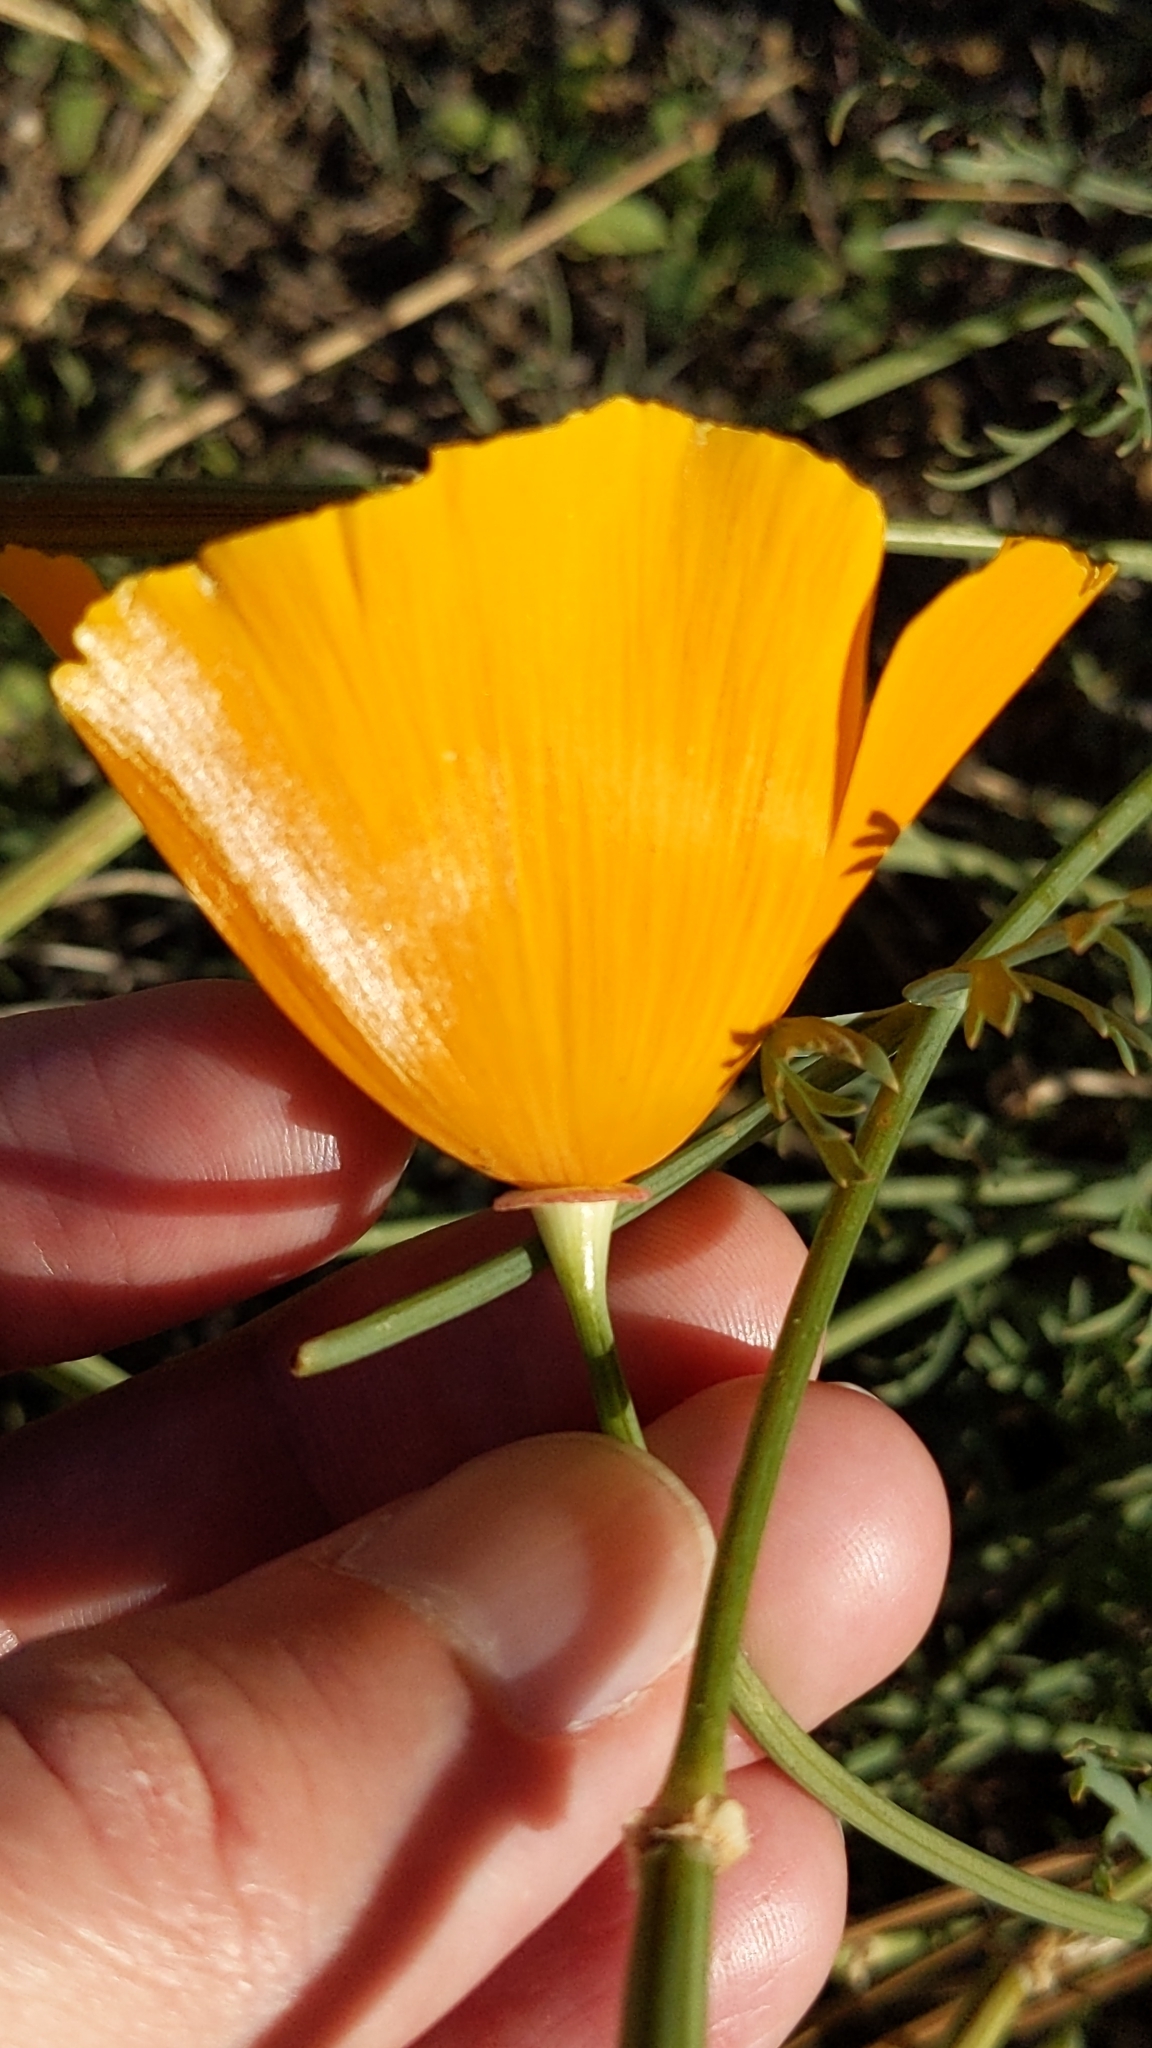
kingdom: Plantae
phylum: Tracheophyta
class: Magnoliopsida
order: Ranunculales
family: Papaveraceae
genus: Eschscholzia
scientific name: Eschscholzia californica
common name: California poppy
